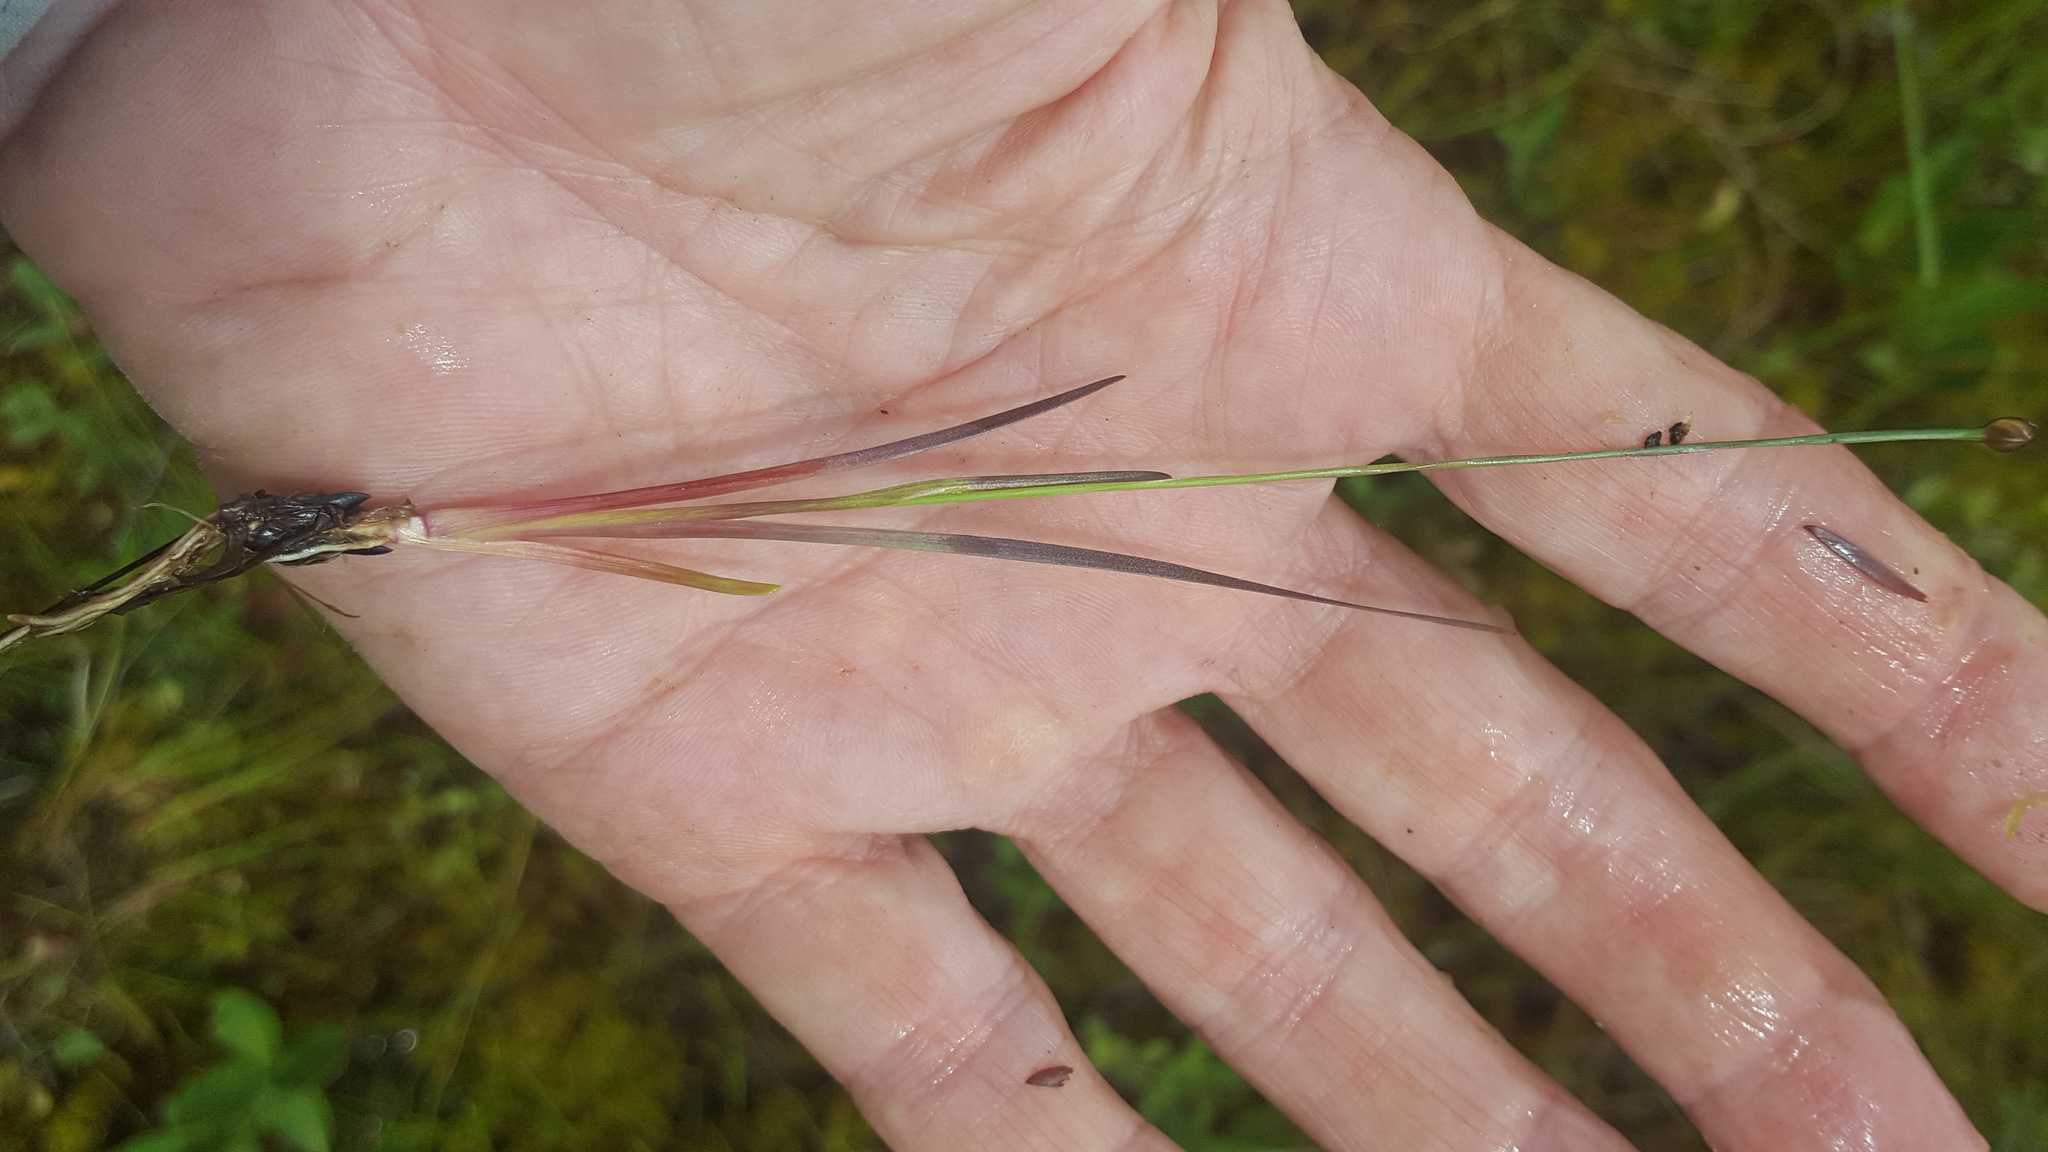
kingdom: Plantae
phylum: Tracheophyta
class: Liliopsida
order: Poales
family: Xyridaceae
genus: Xyris
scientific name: Xyris montana
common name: Northern yellow-eyed-grass
